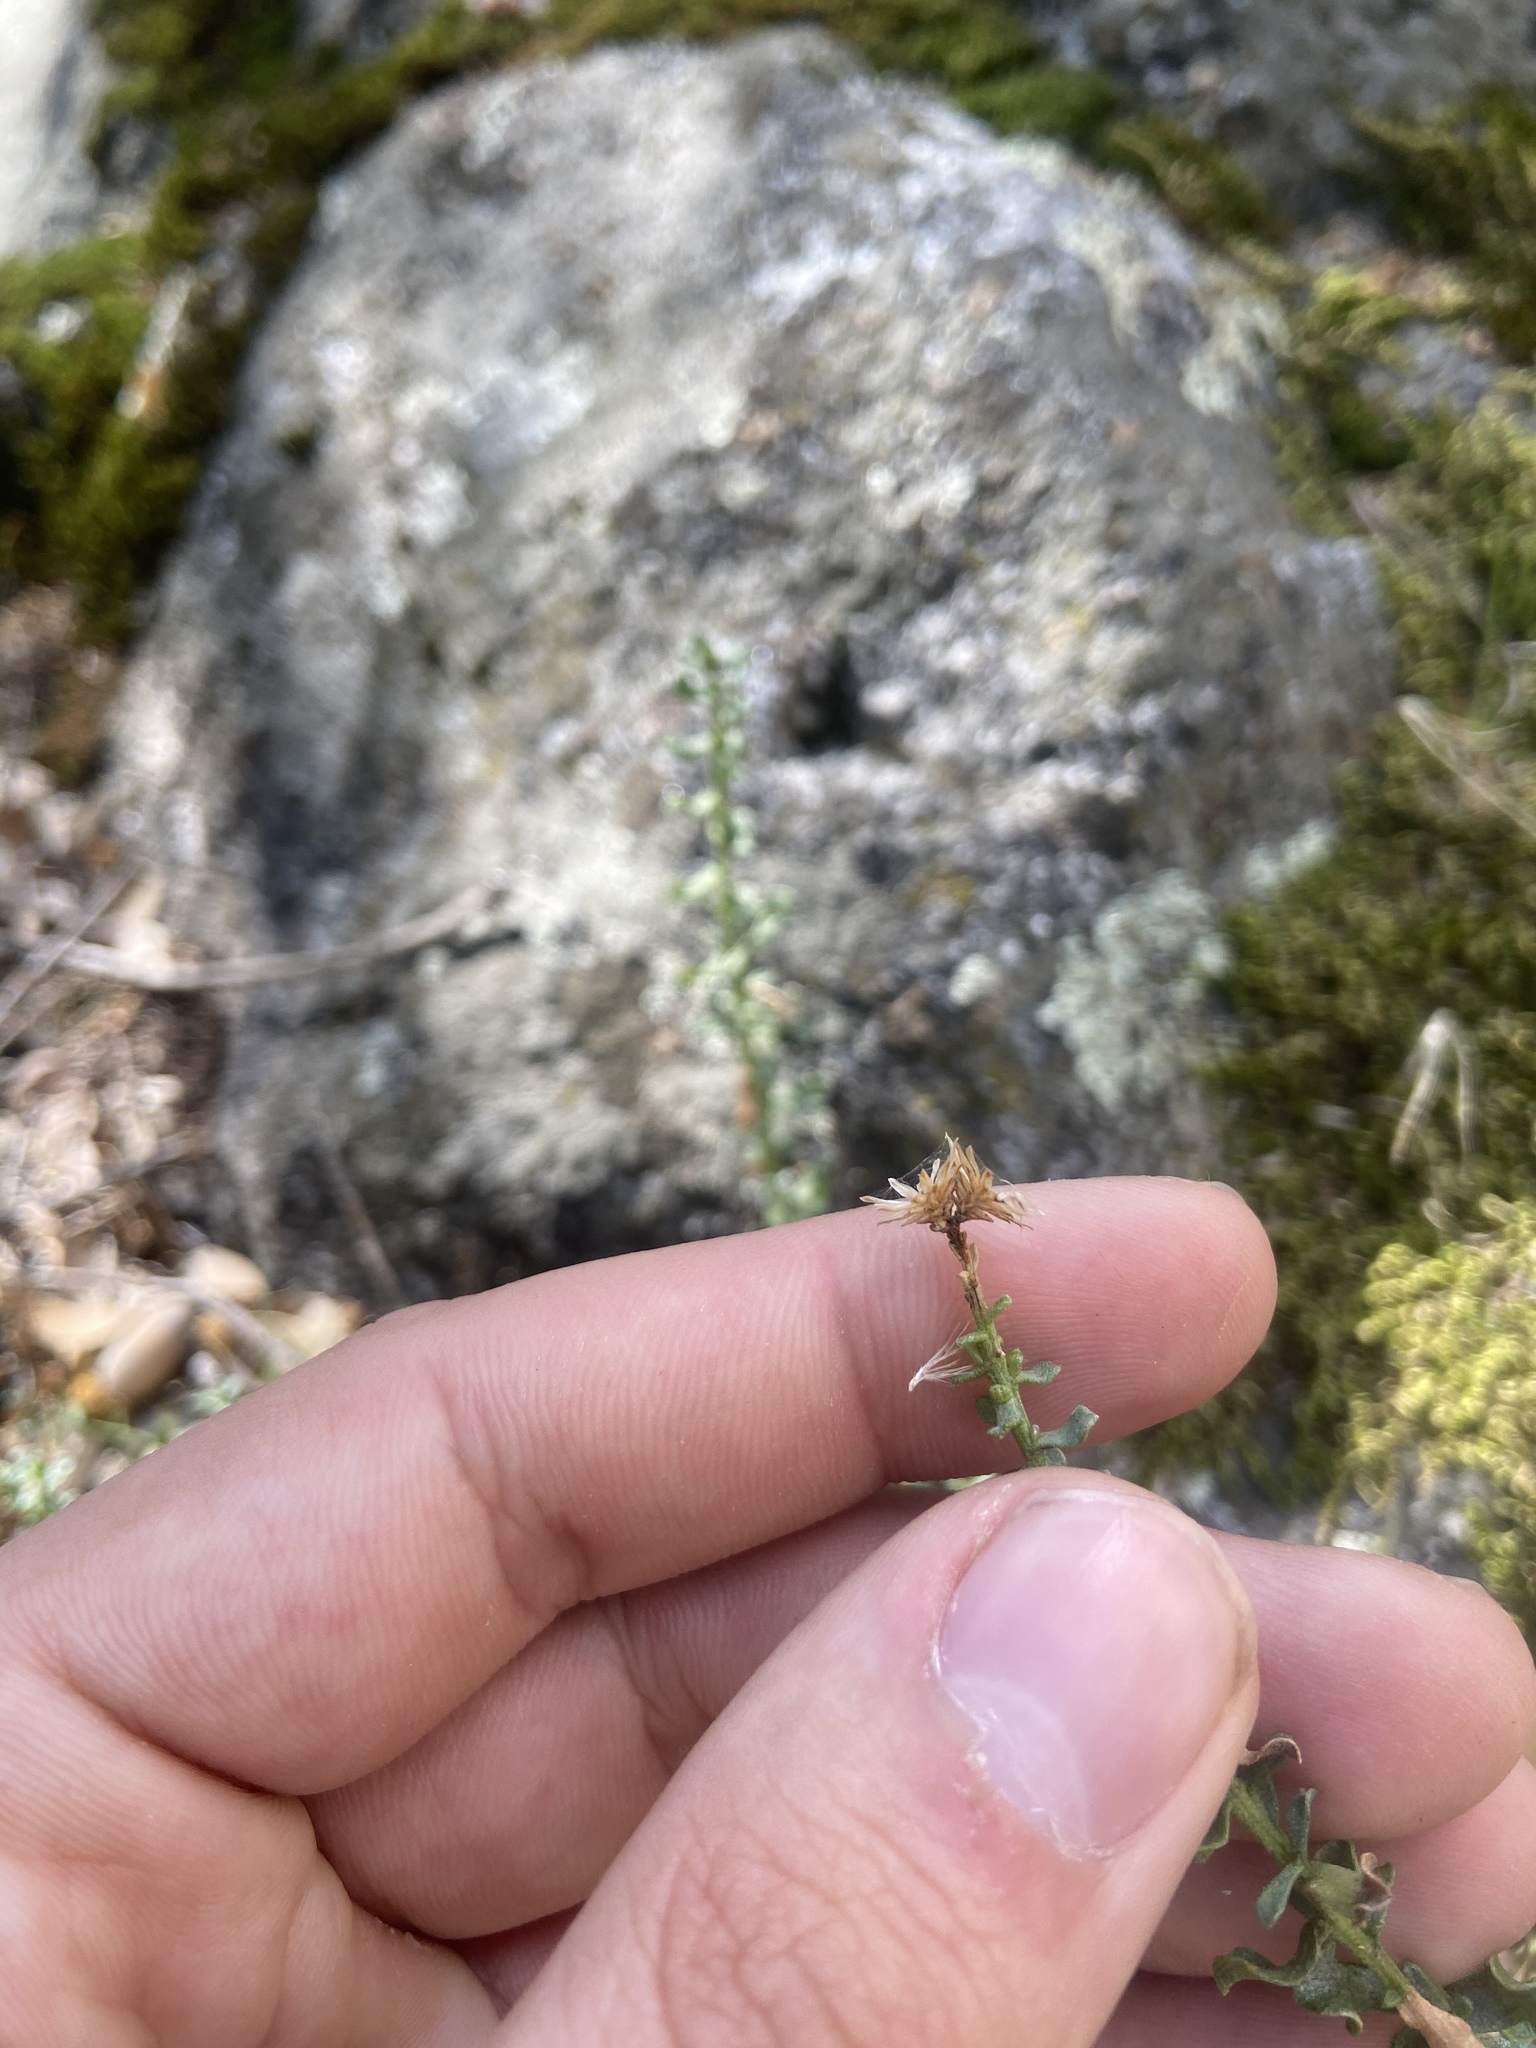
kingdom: Plantae
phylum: Tracheophyta
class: Magnoliopsida
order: Asterales
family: Asteraceae
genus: Ericameria
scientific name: Ericameria cuneata
